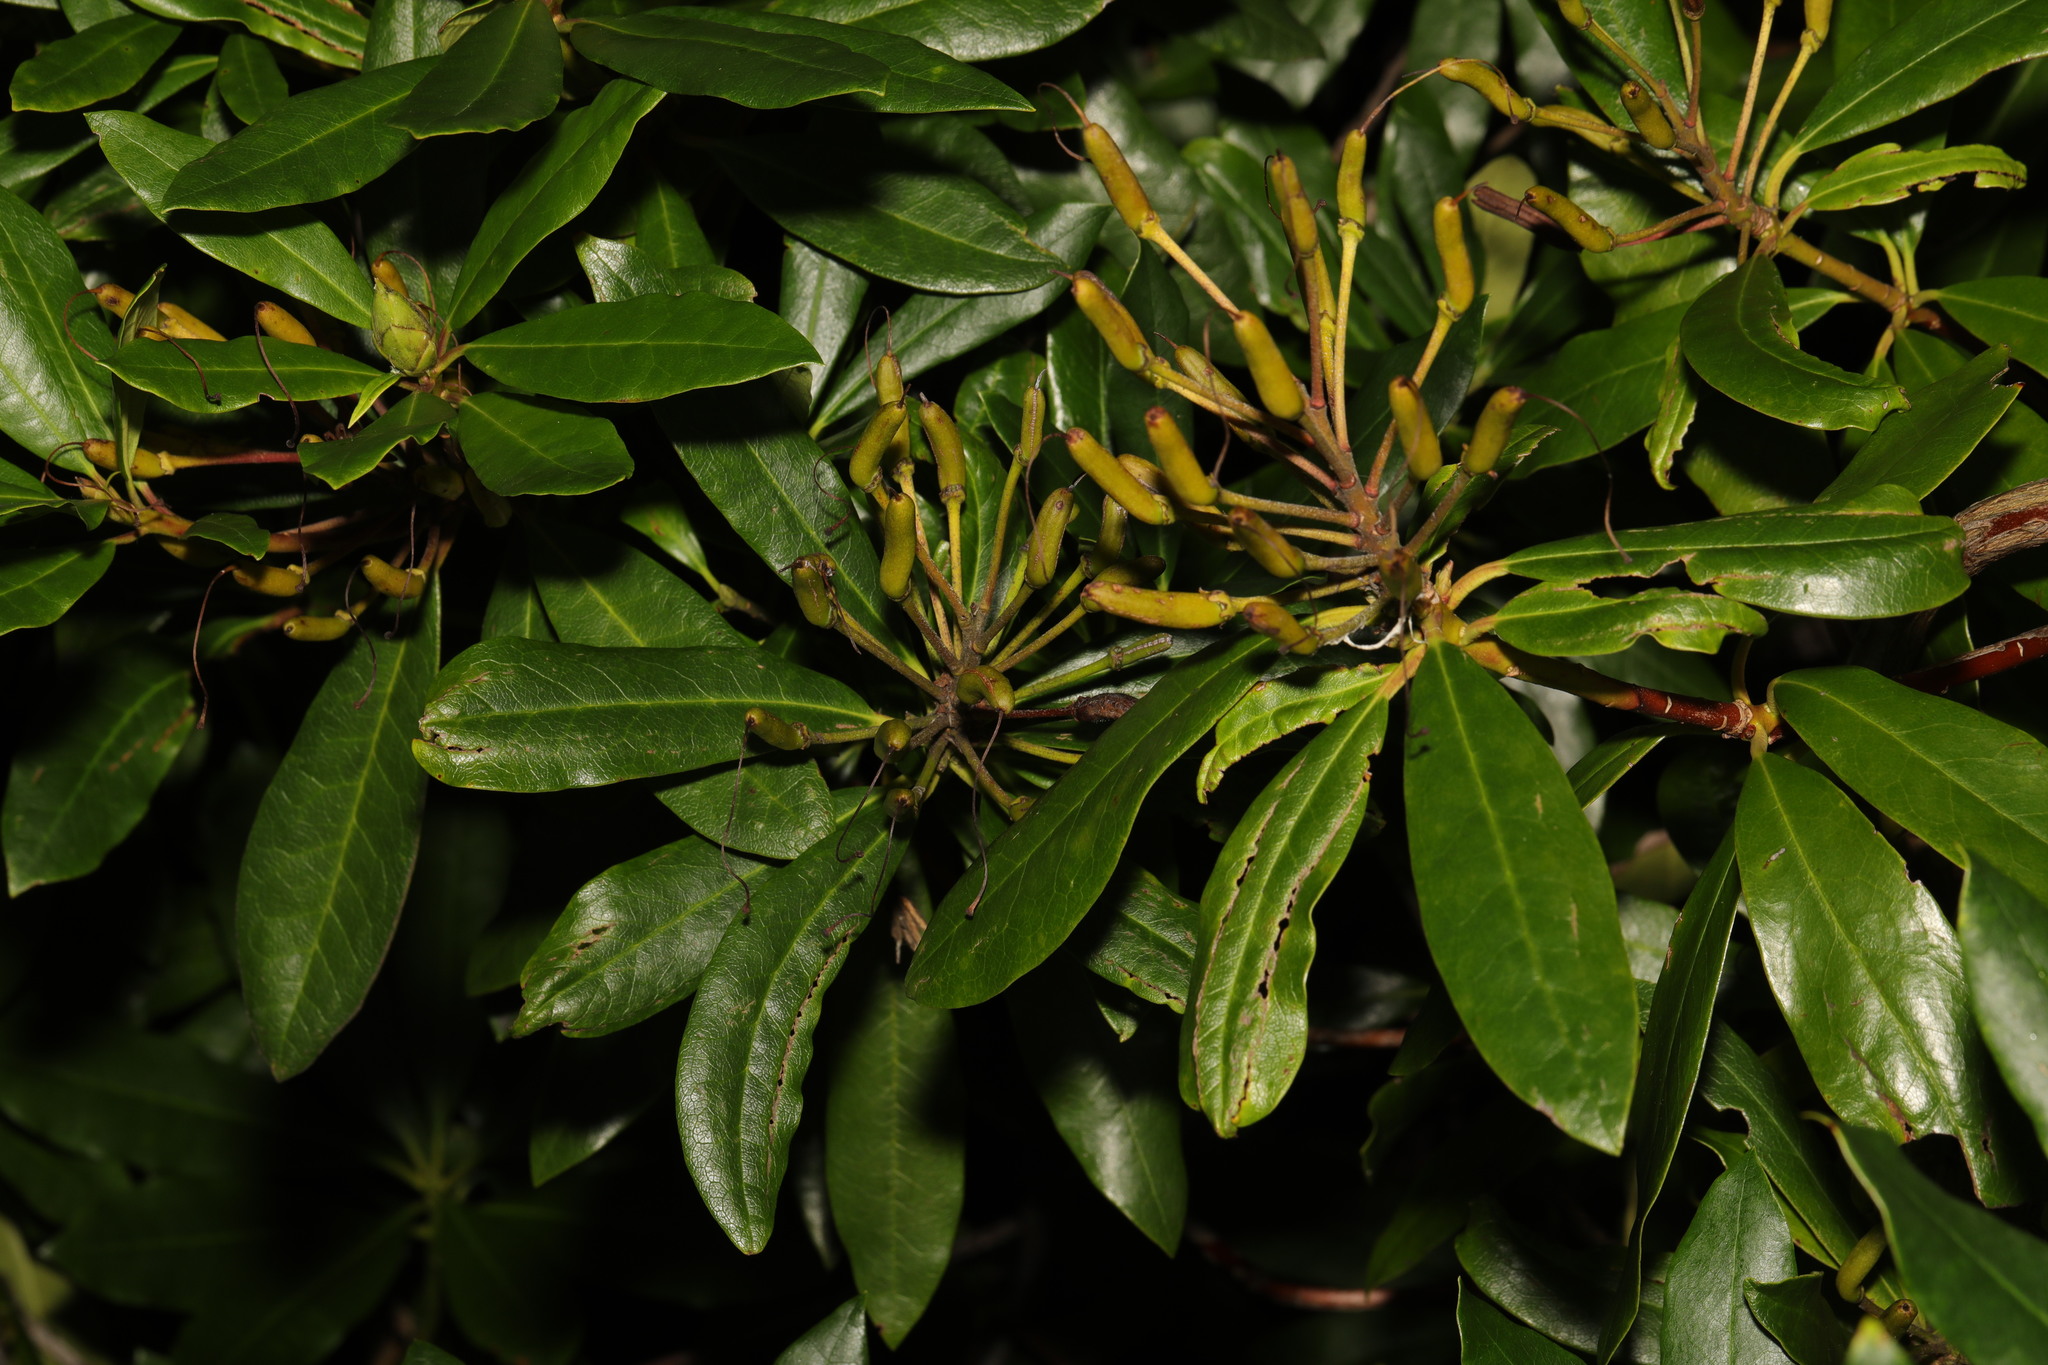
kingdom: Plantae
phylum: Tracheophyta
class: Magnoliopsida
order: Ericales
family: Ericaceae
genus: Rhododendron
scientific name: Rhododendron ponticum
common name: Rhododendron
